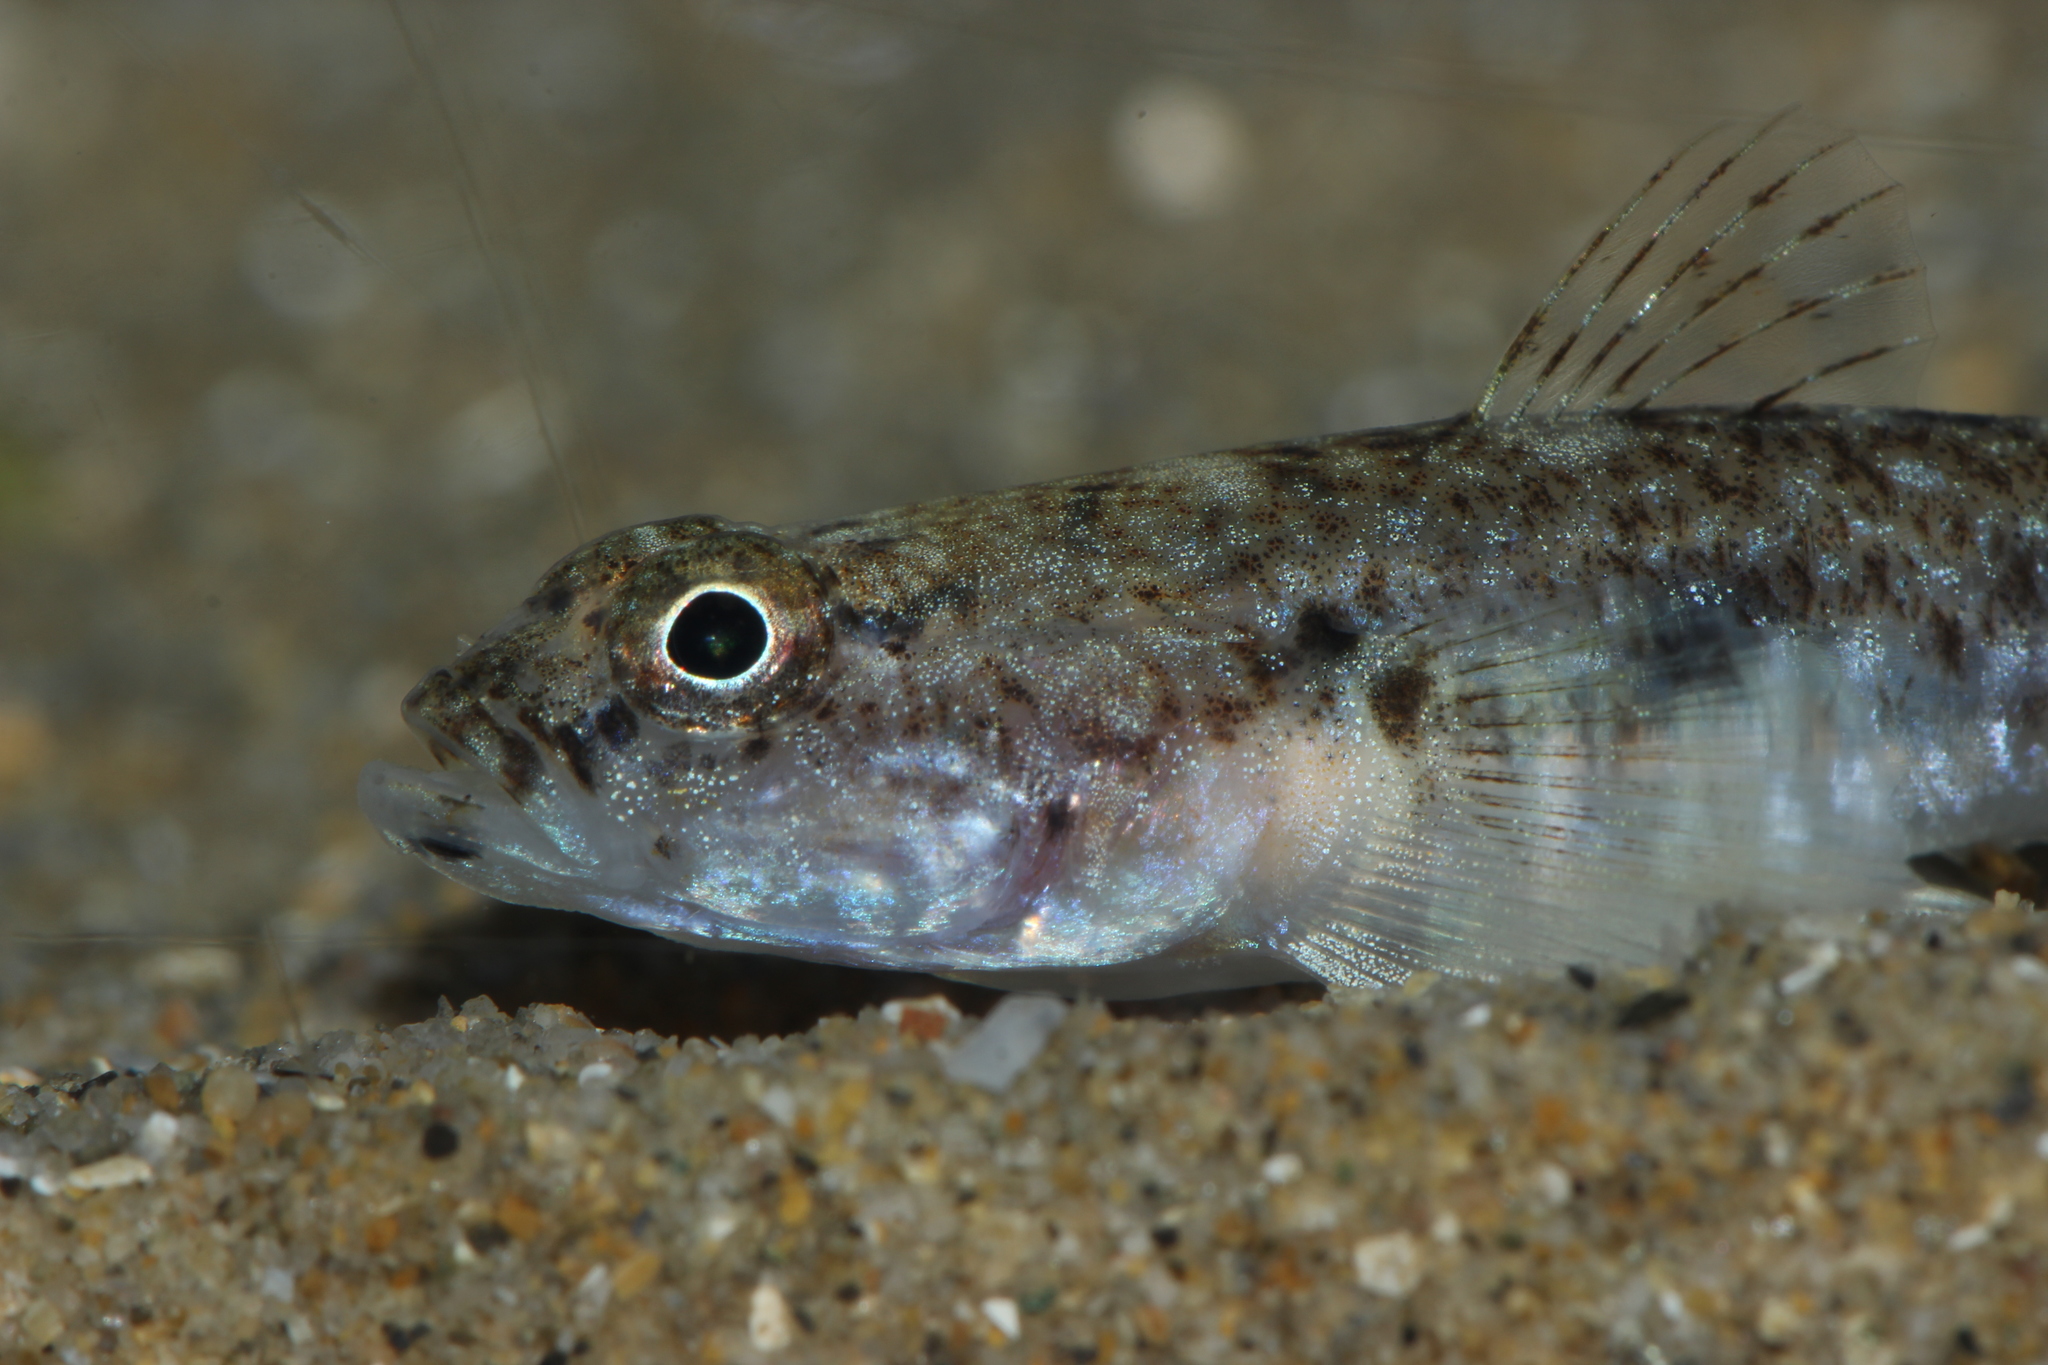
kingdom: Animalia
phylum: Chordata
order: Perciformes
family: Gobiidae
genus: Pomatoschistus
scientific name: Pomatoschistus marmoratus
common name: Marbled goby
